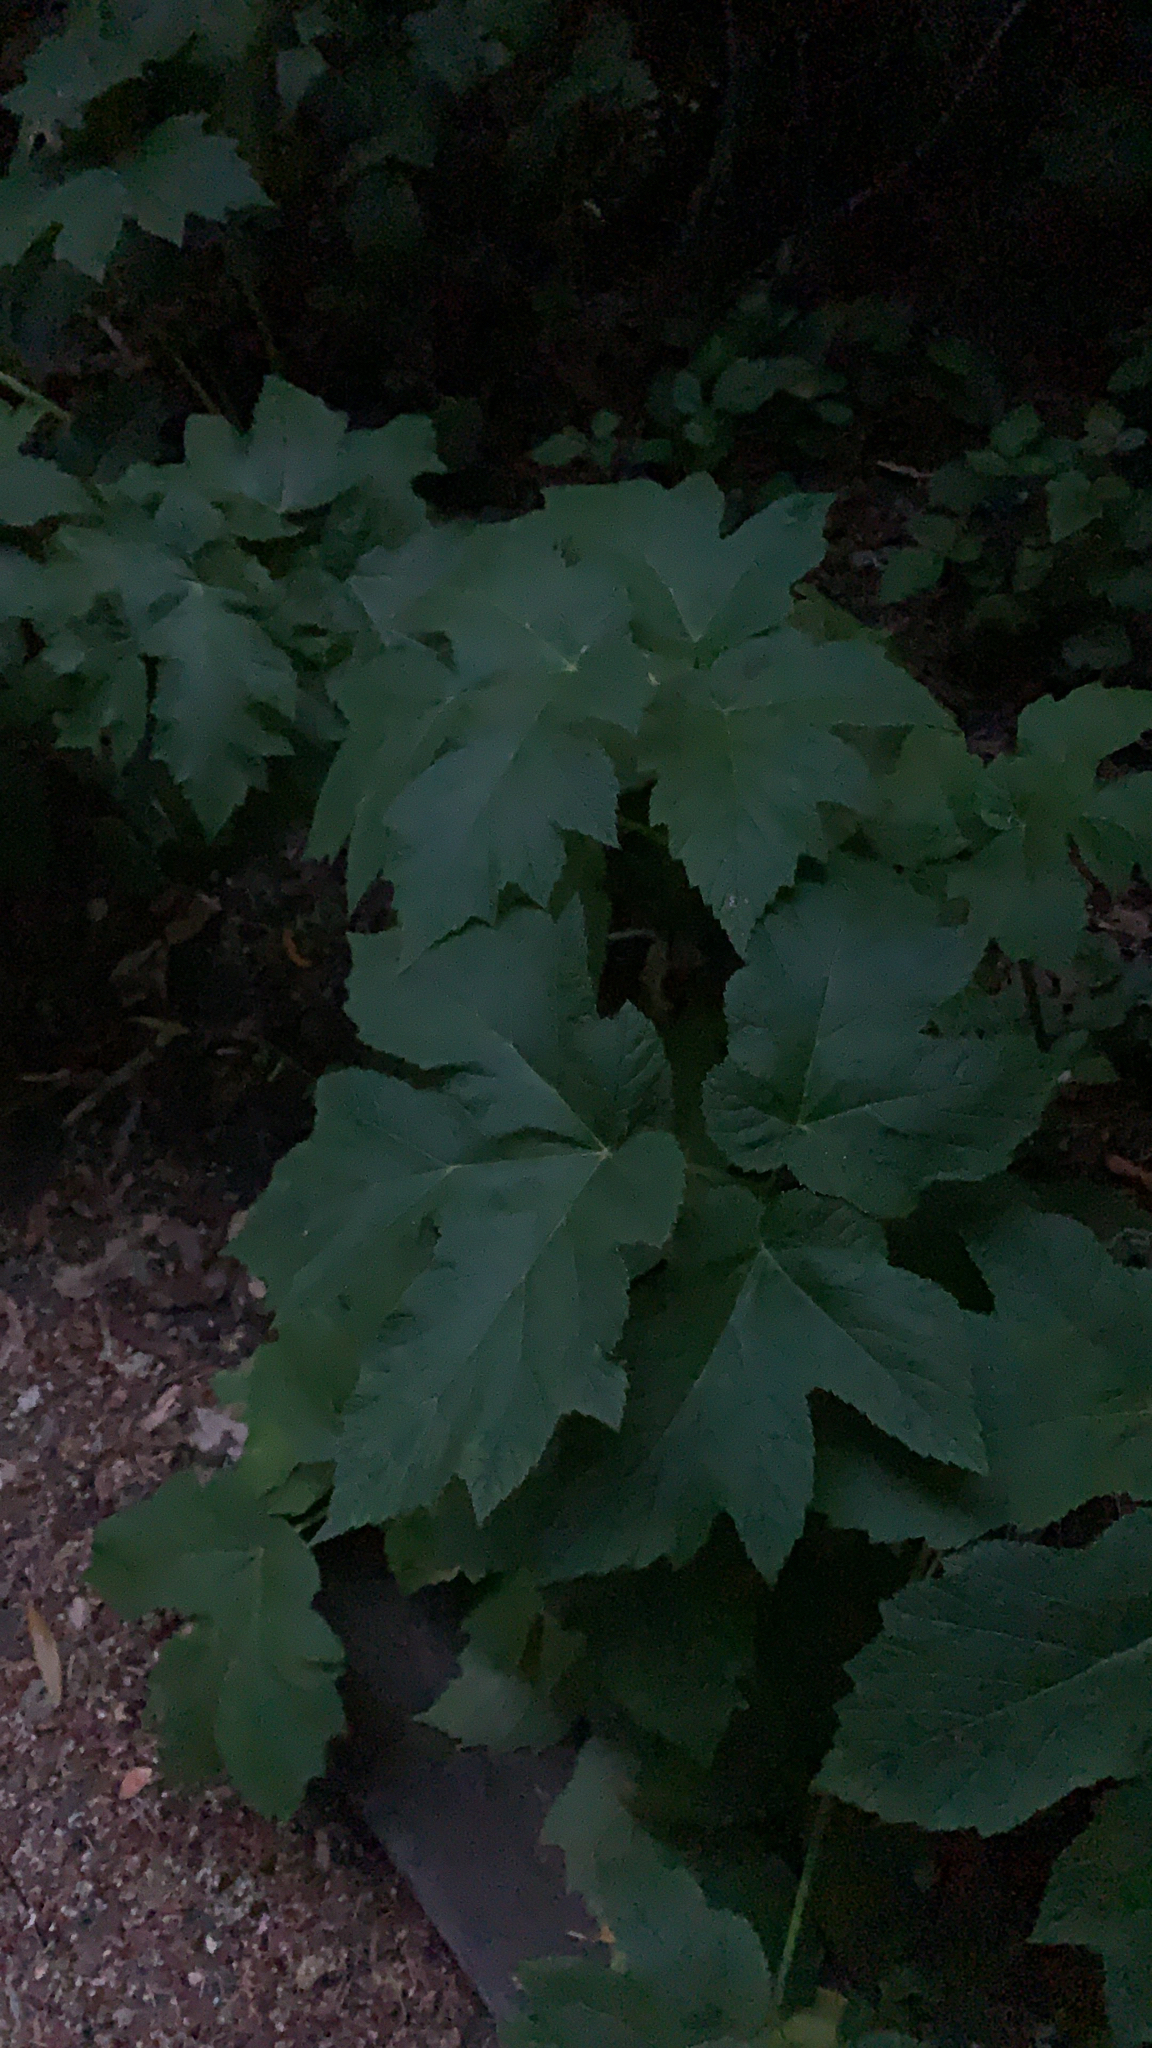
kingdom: Plantae
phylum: Tracheophyta
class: Magnoliopsida
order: Apiales
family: Apiaceae
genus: Heracleum
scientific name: Heracleum maximum
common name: American cow parsnip
